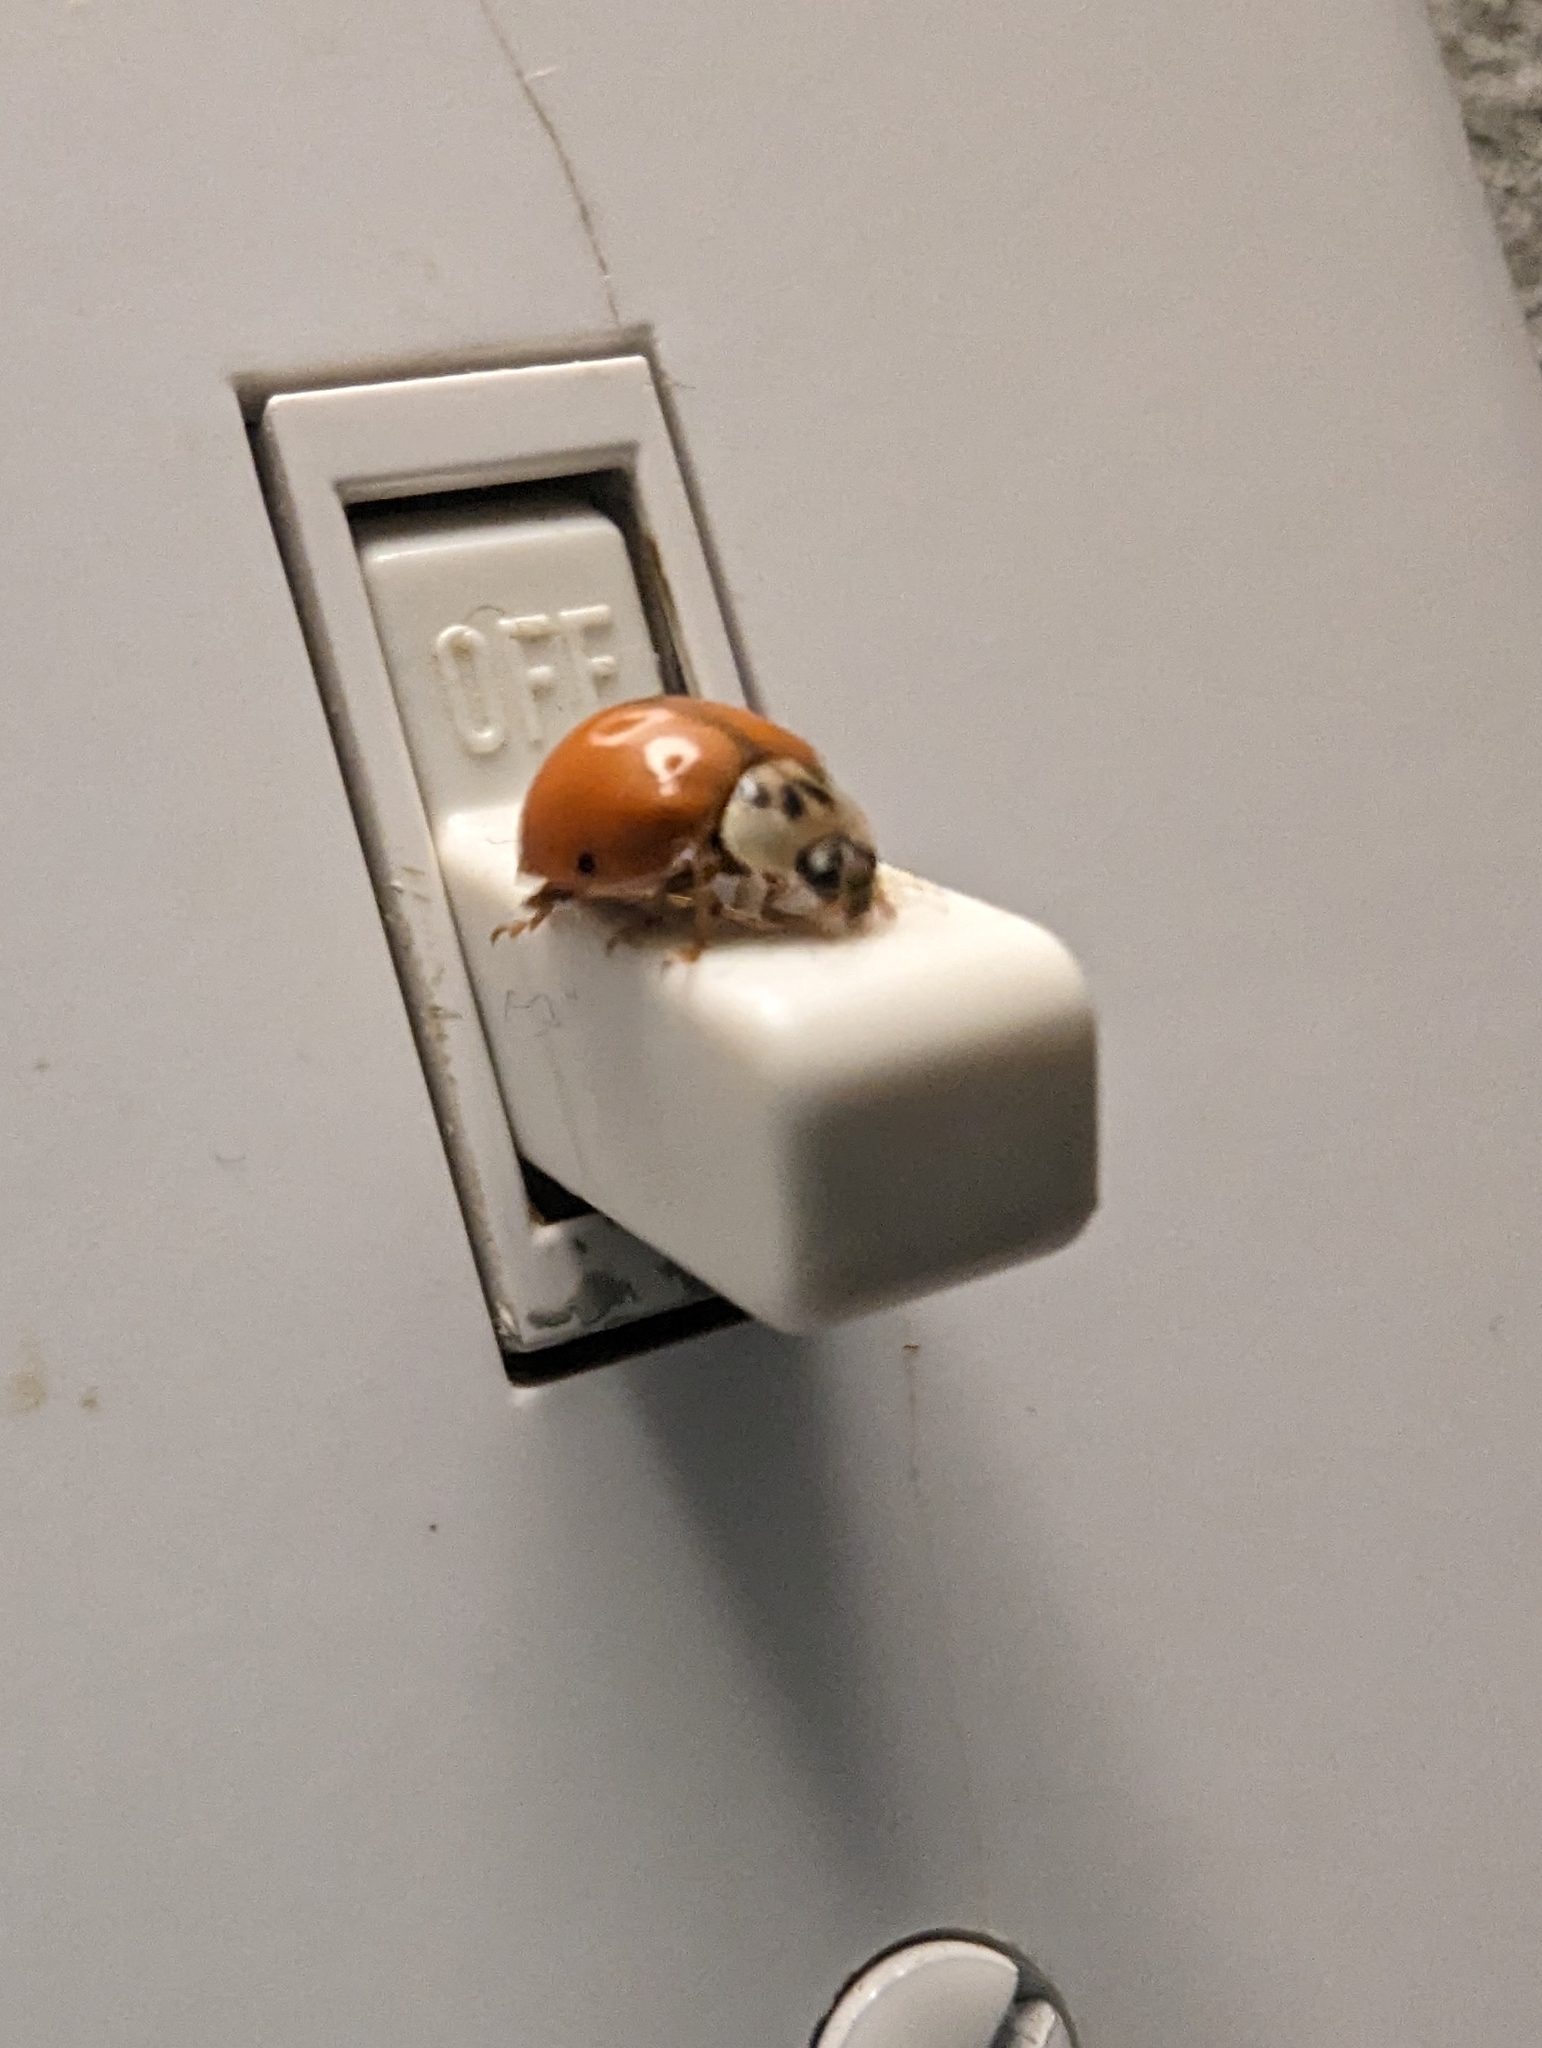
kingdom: Animalia
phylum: Arthropoda
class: Insecta
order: Coleoptera
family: Coccinellidae
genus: Harmonia
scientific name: Harmonia axyridis
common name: Harlequin ladybird
